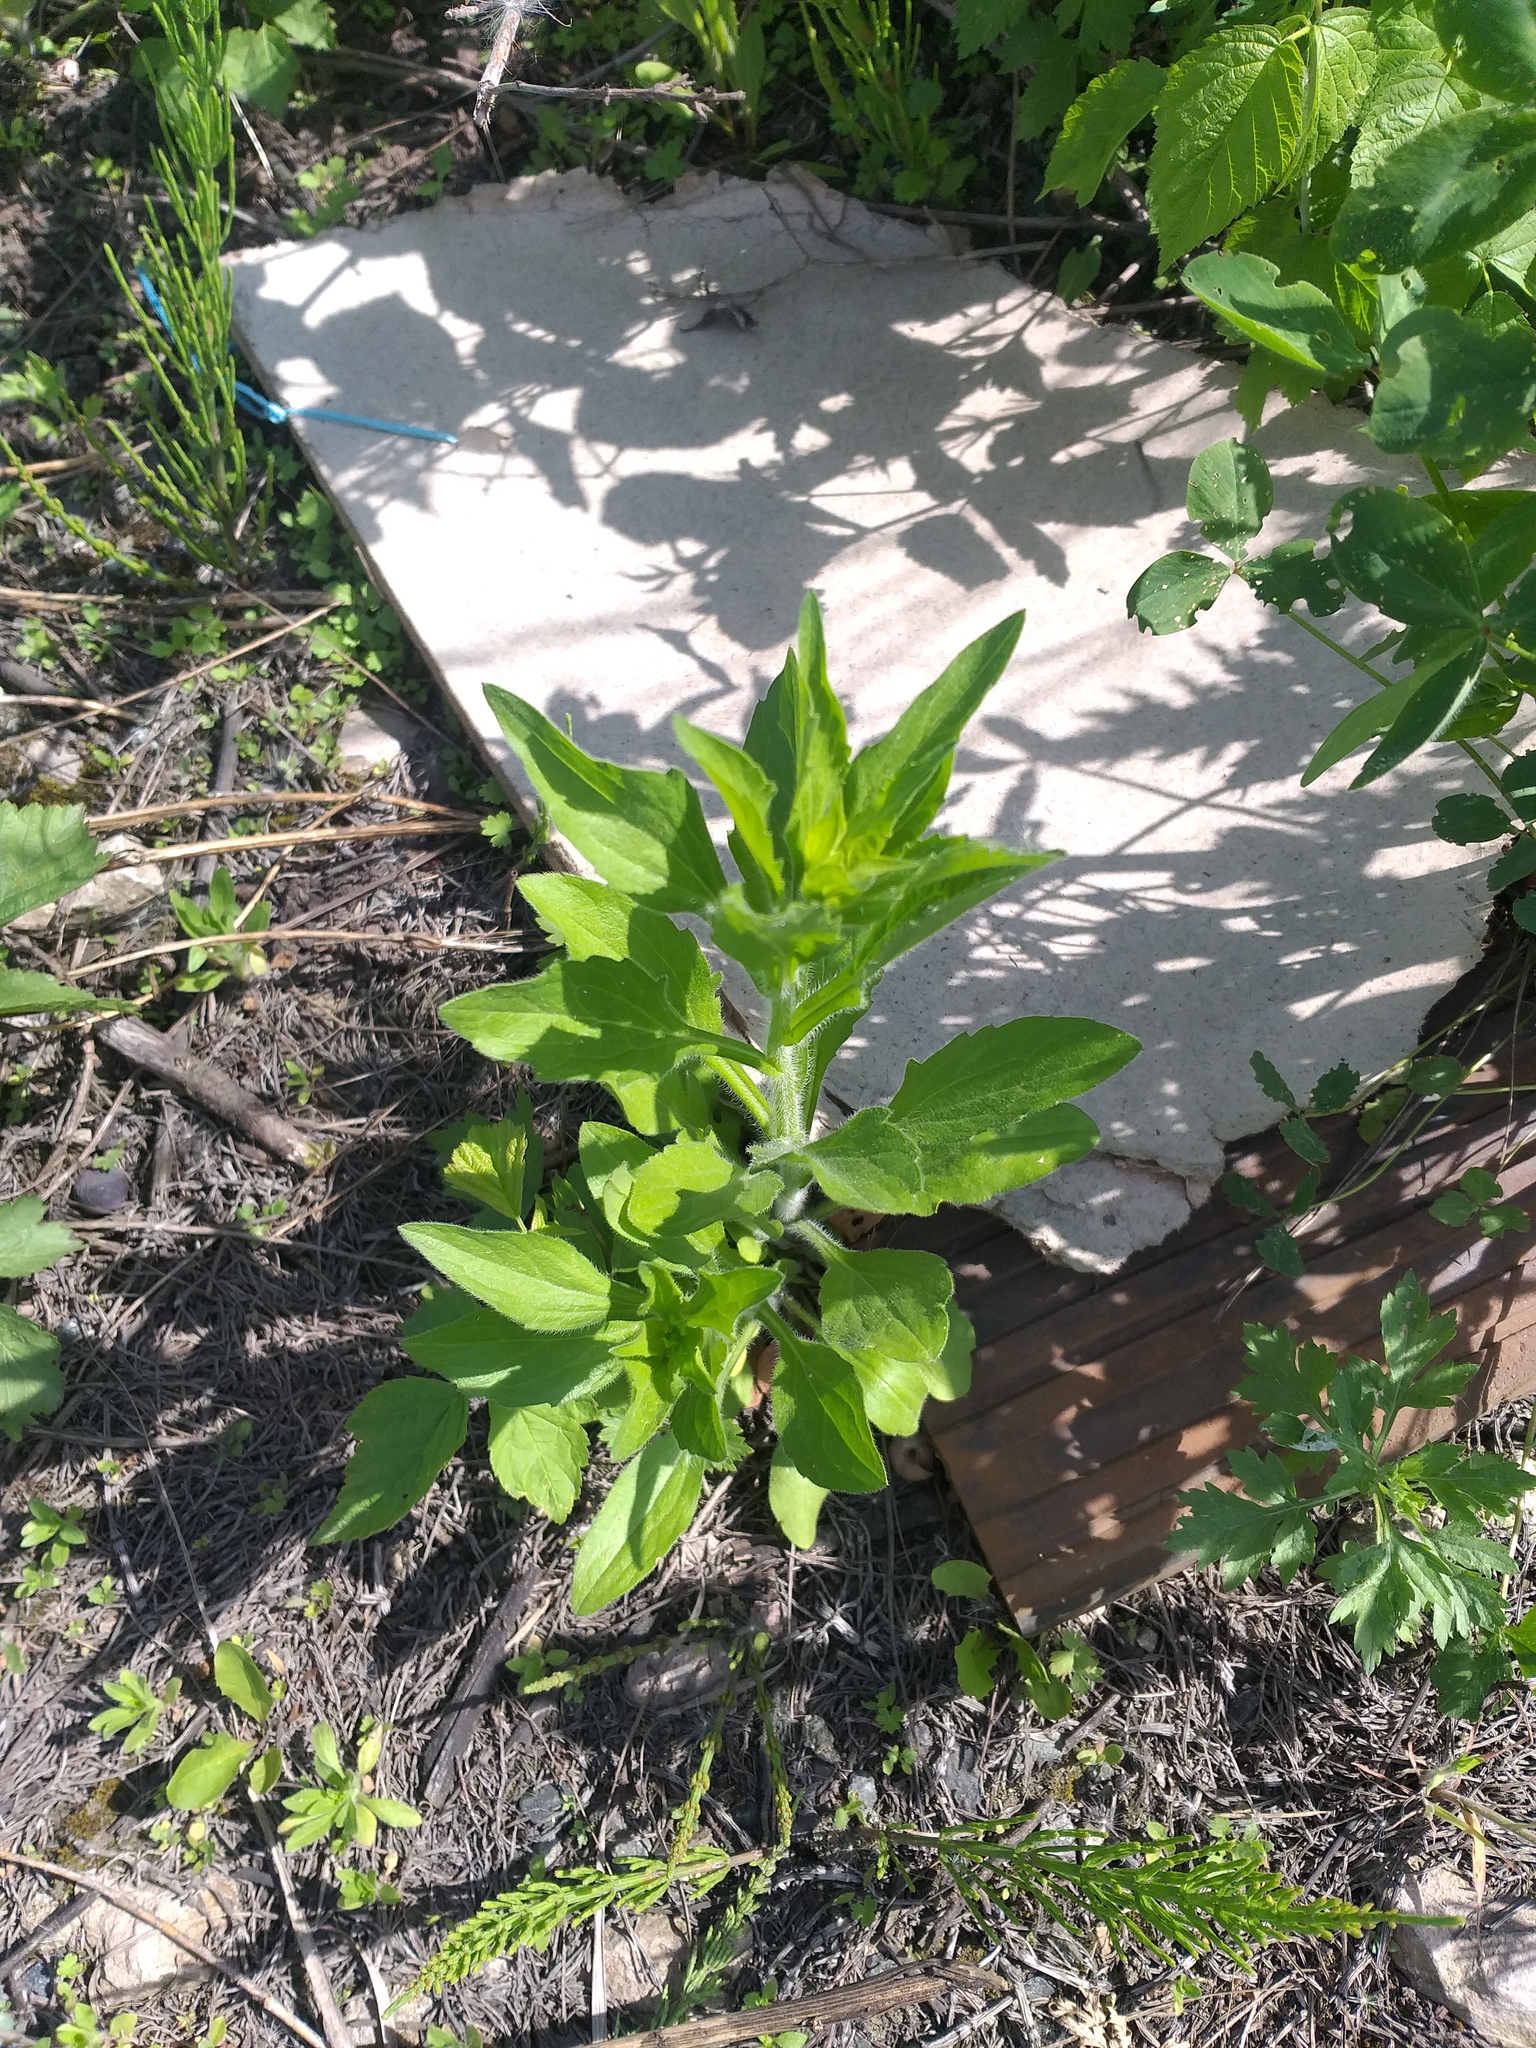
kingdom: Plantae
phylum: Tracheophyta
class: Magnoliopsida
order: Asterales
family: Asteraceae
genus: Erigeron
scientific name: Erigeron annuus
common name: Tall fleabane
